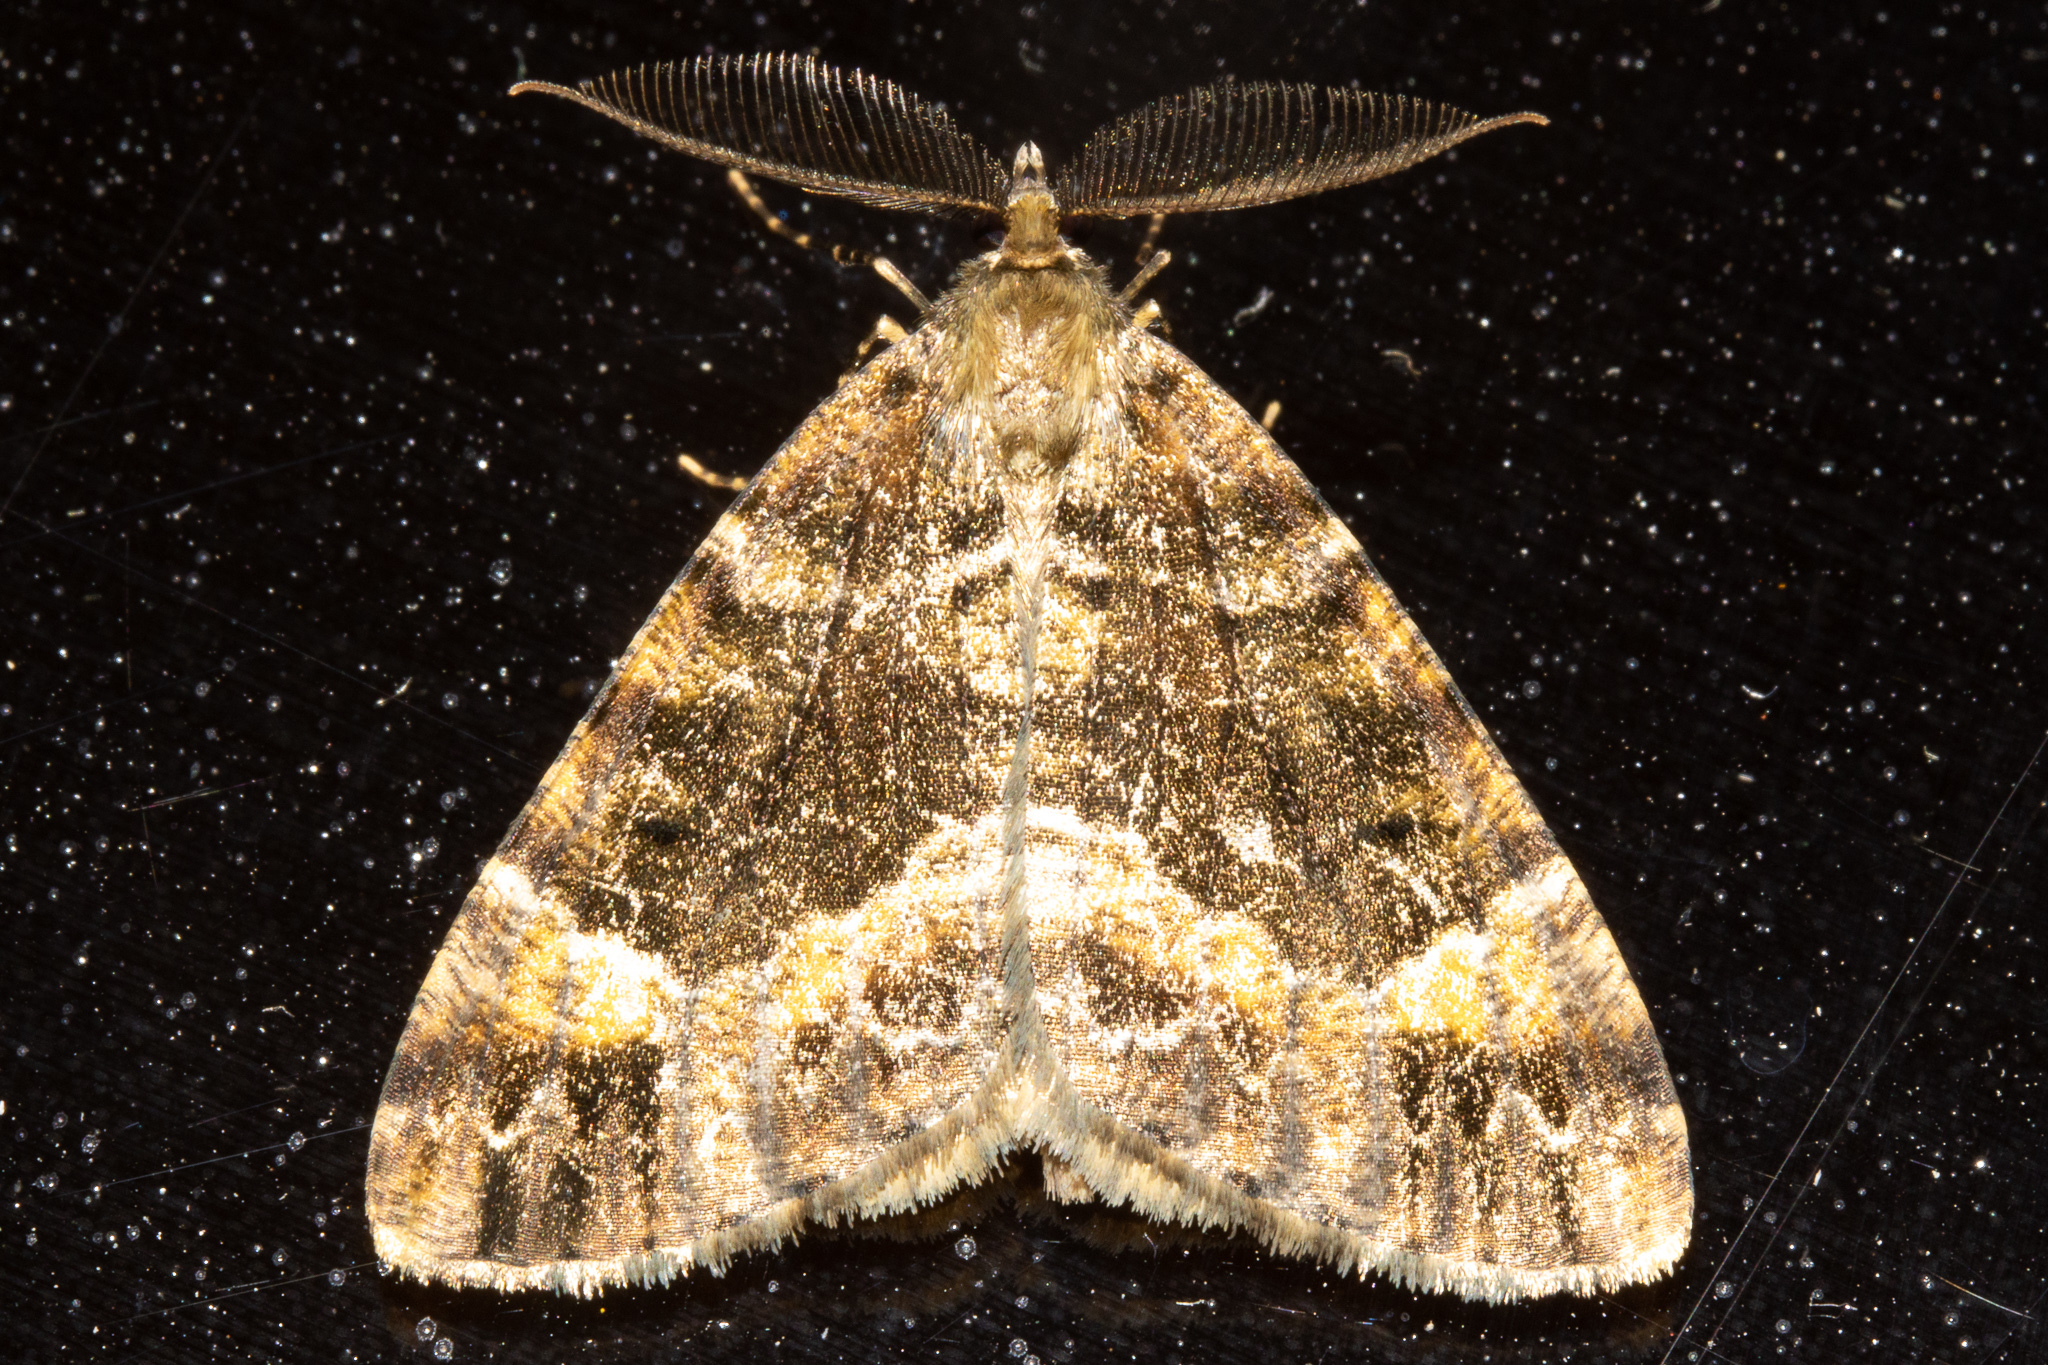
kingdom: Animalia
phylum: Arthropoda
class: Insecta
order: Lepidoptera
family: Geometridae
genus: Pseudocoremia
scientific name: Pseudocoremia productata
